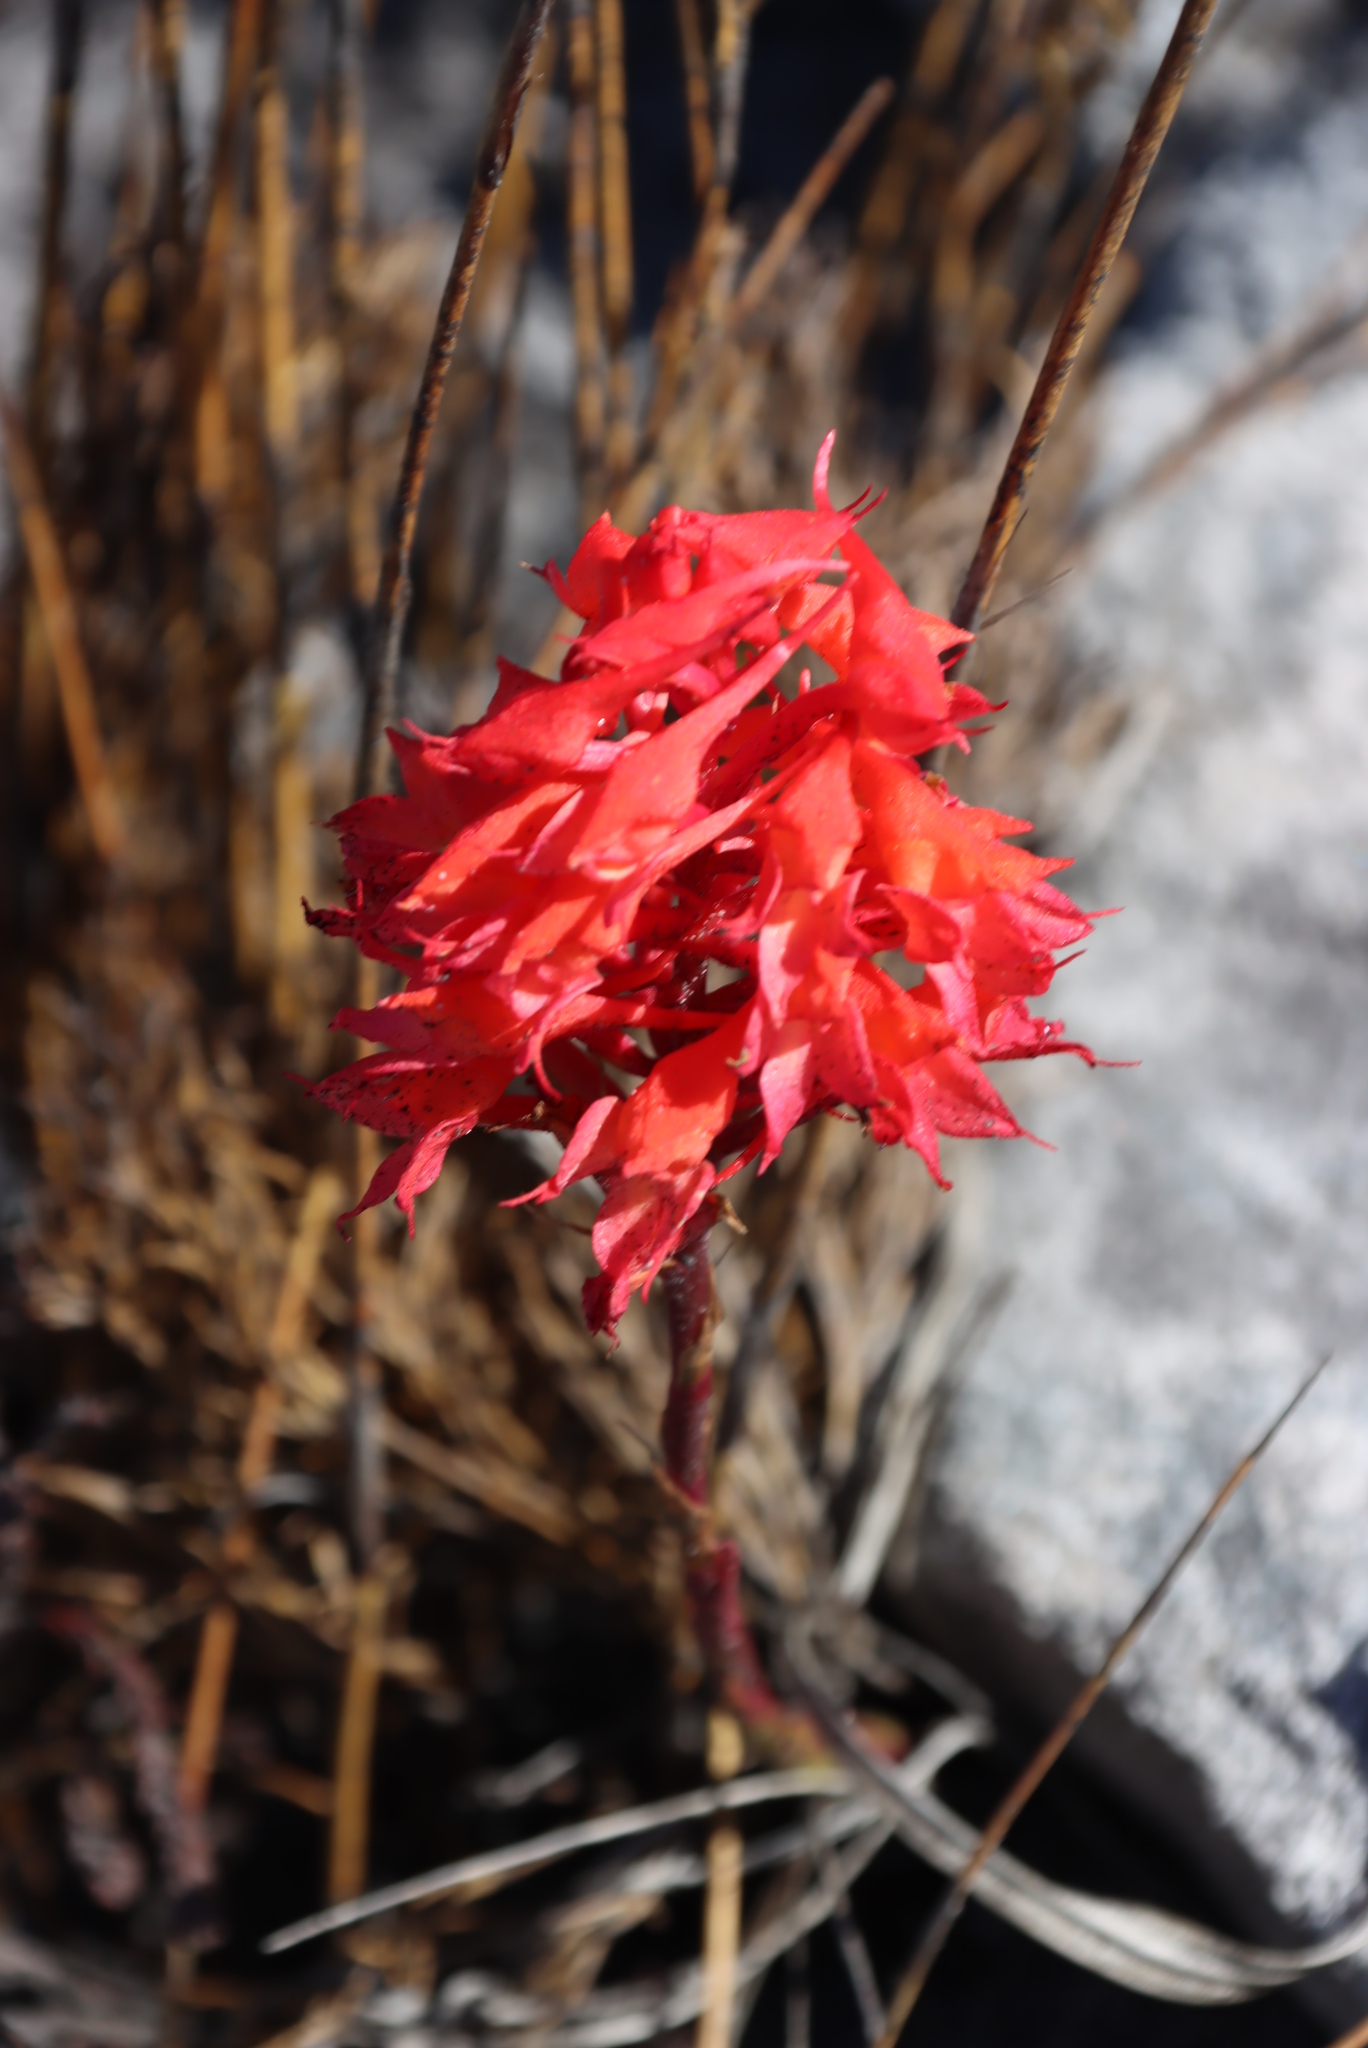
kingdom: Plantae
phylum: Tracheophyta
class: Liliopsida
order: Asparagales
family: Orchidaceae
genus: Disa
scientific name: Disa ferruginea
